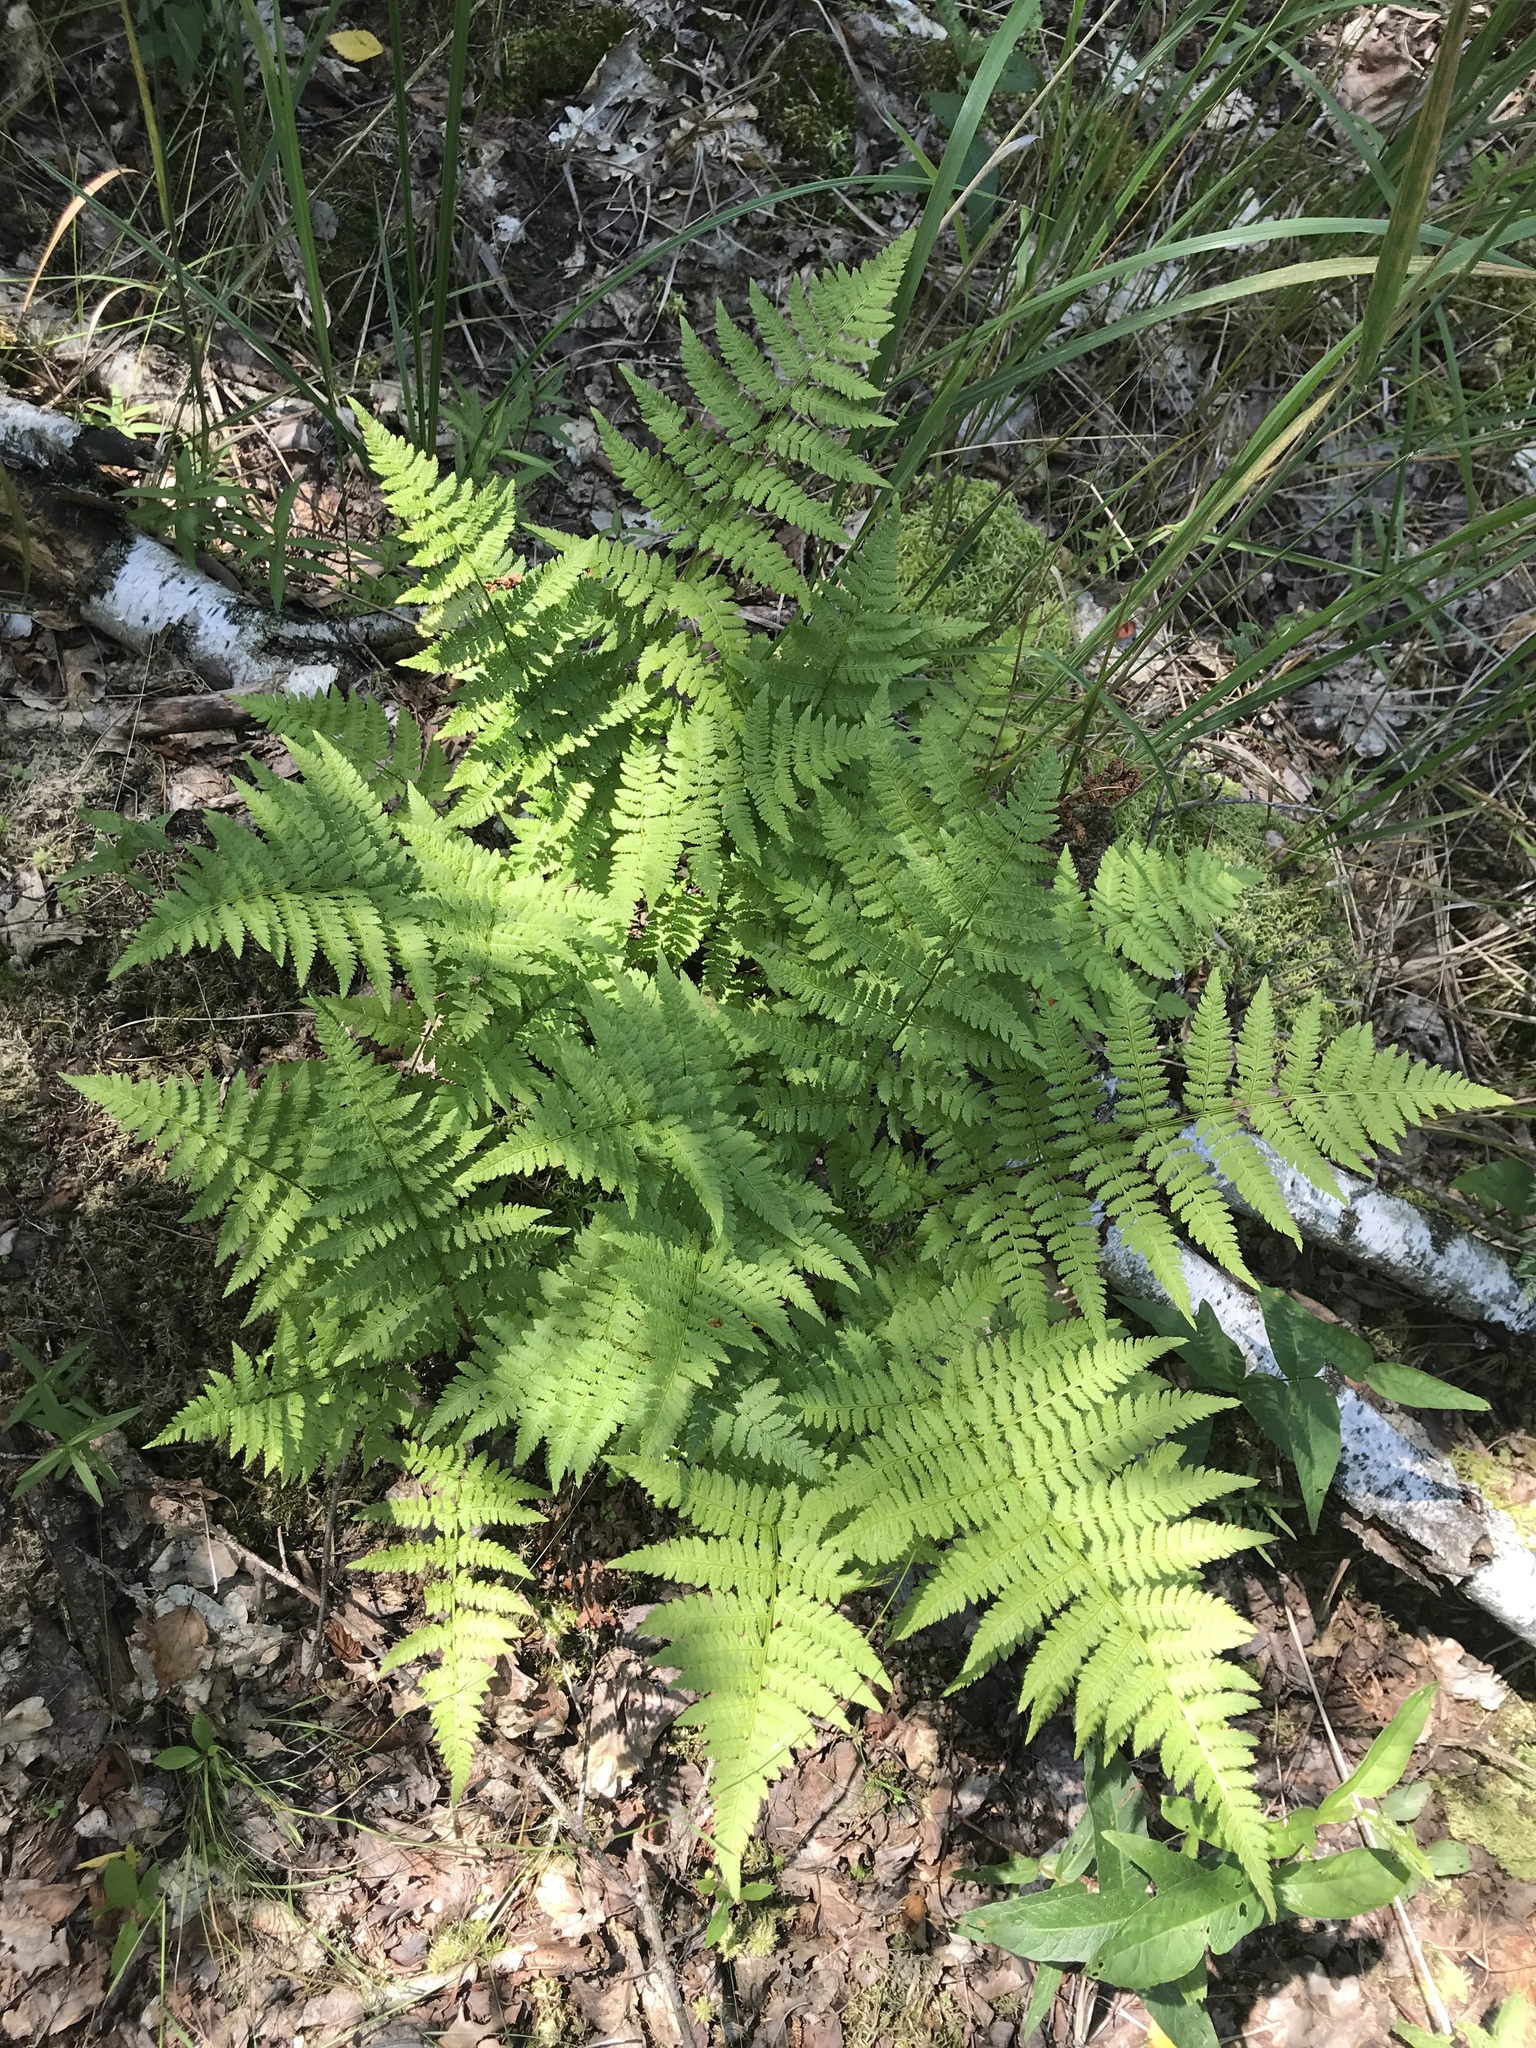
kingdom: Plantae
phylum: Tracheophyta
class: Polypodiopsida
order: Polypodiales
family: Dryopteridaceae
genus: Dryopteris
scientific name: Dryopteris carthusiana
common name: Narrow buckler-fern
